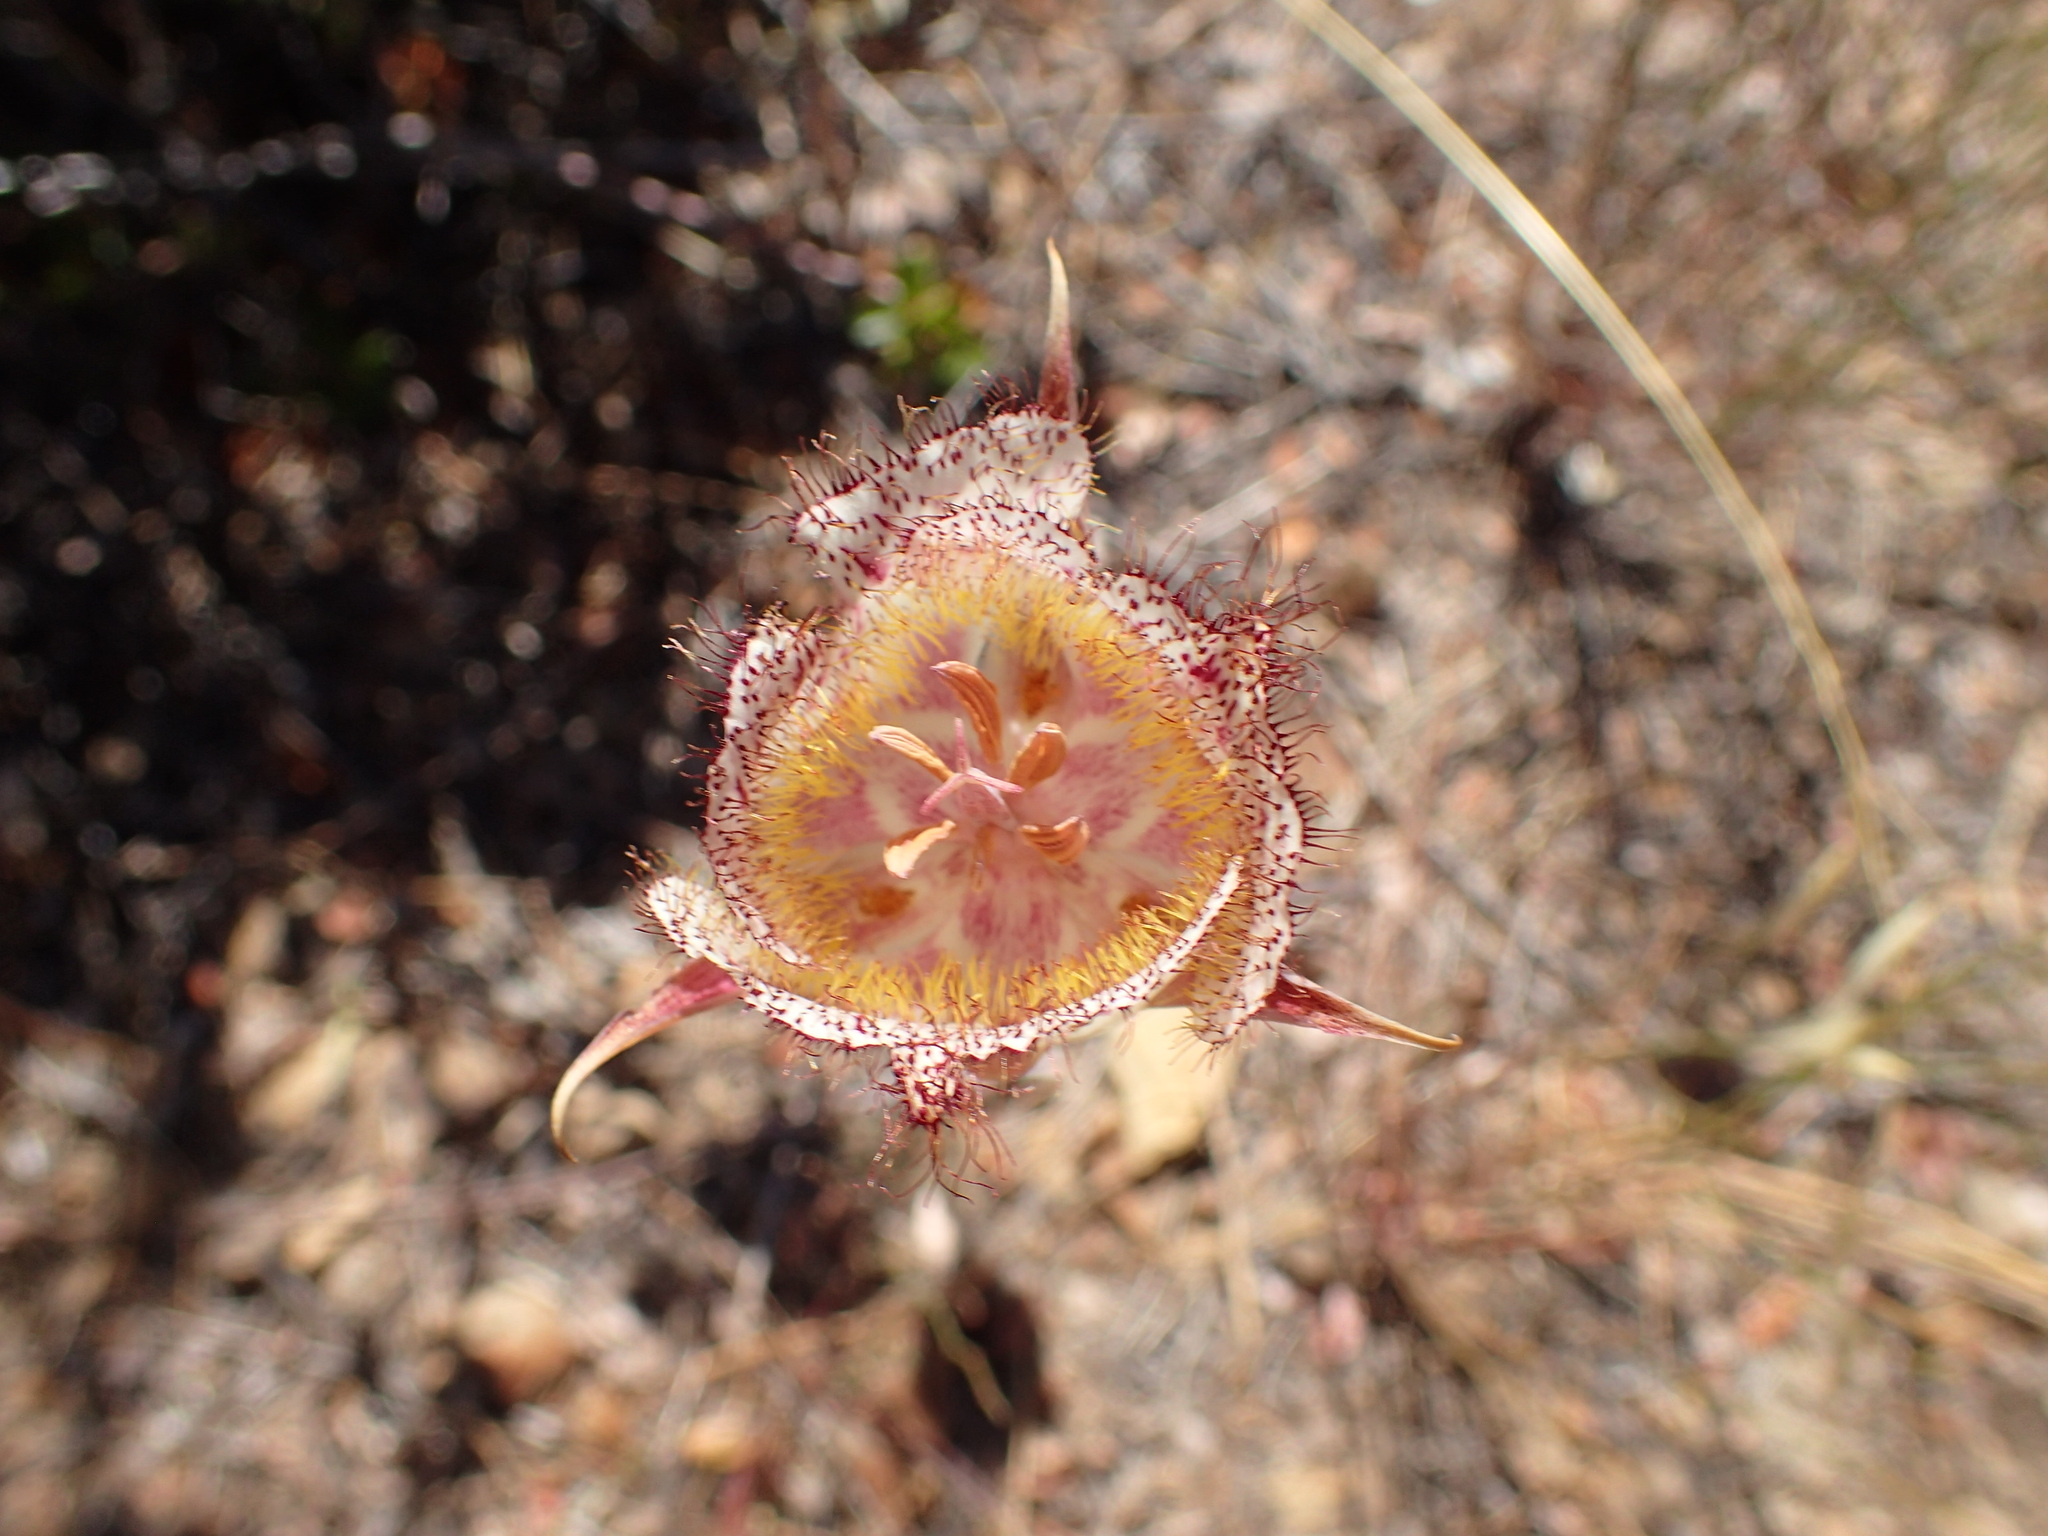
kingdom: Plantae
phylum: Tracheophyta
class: Liliopsida
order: Liliales
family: Liliaceae
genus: Calochortus
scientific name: Calochortus fimbriatus
